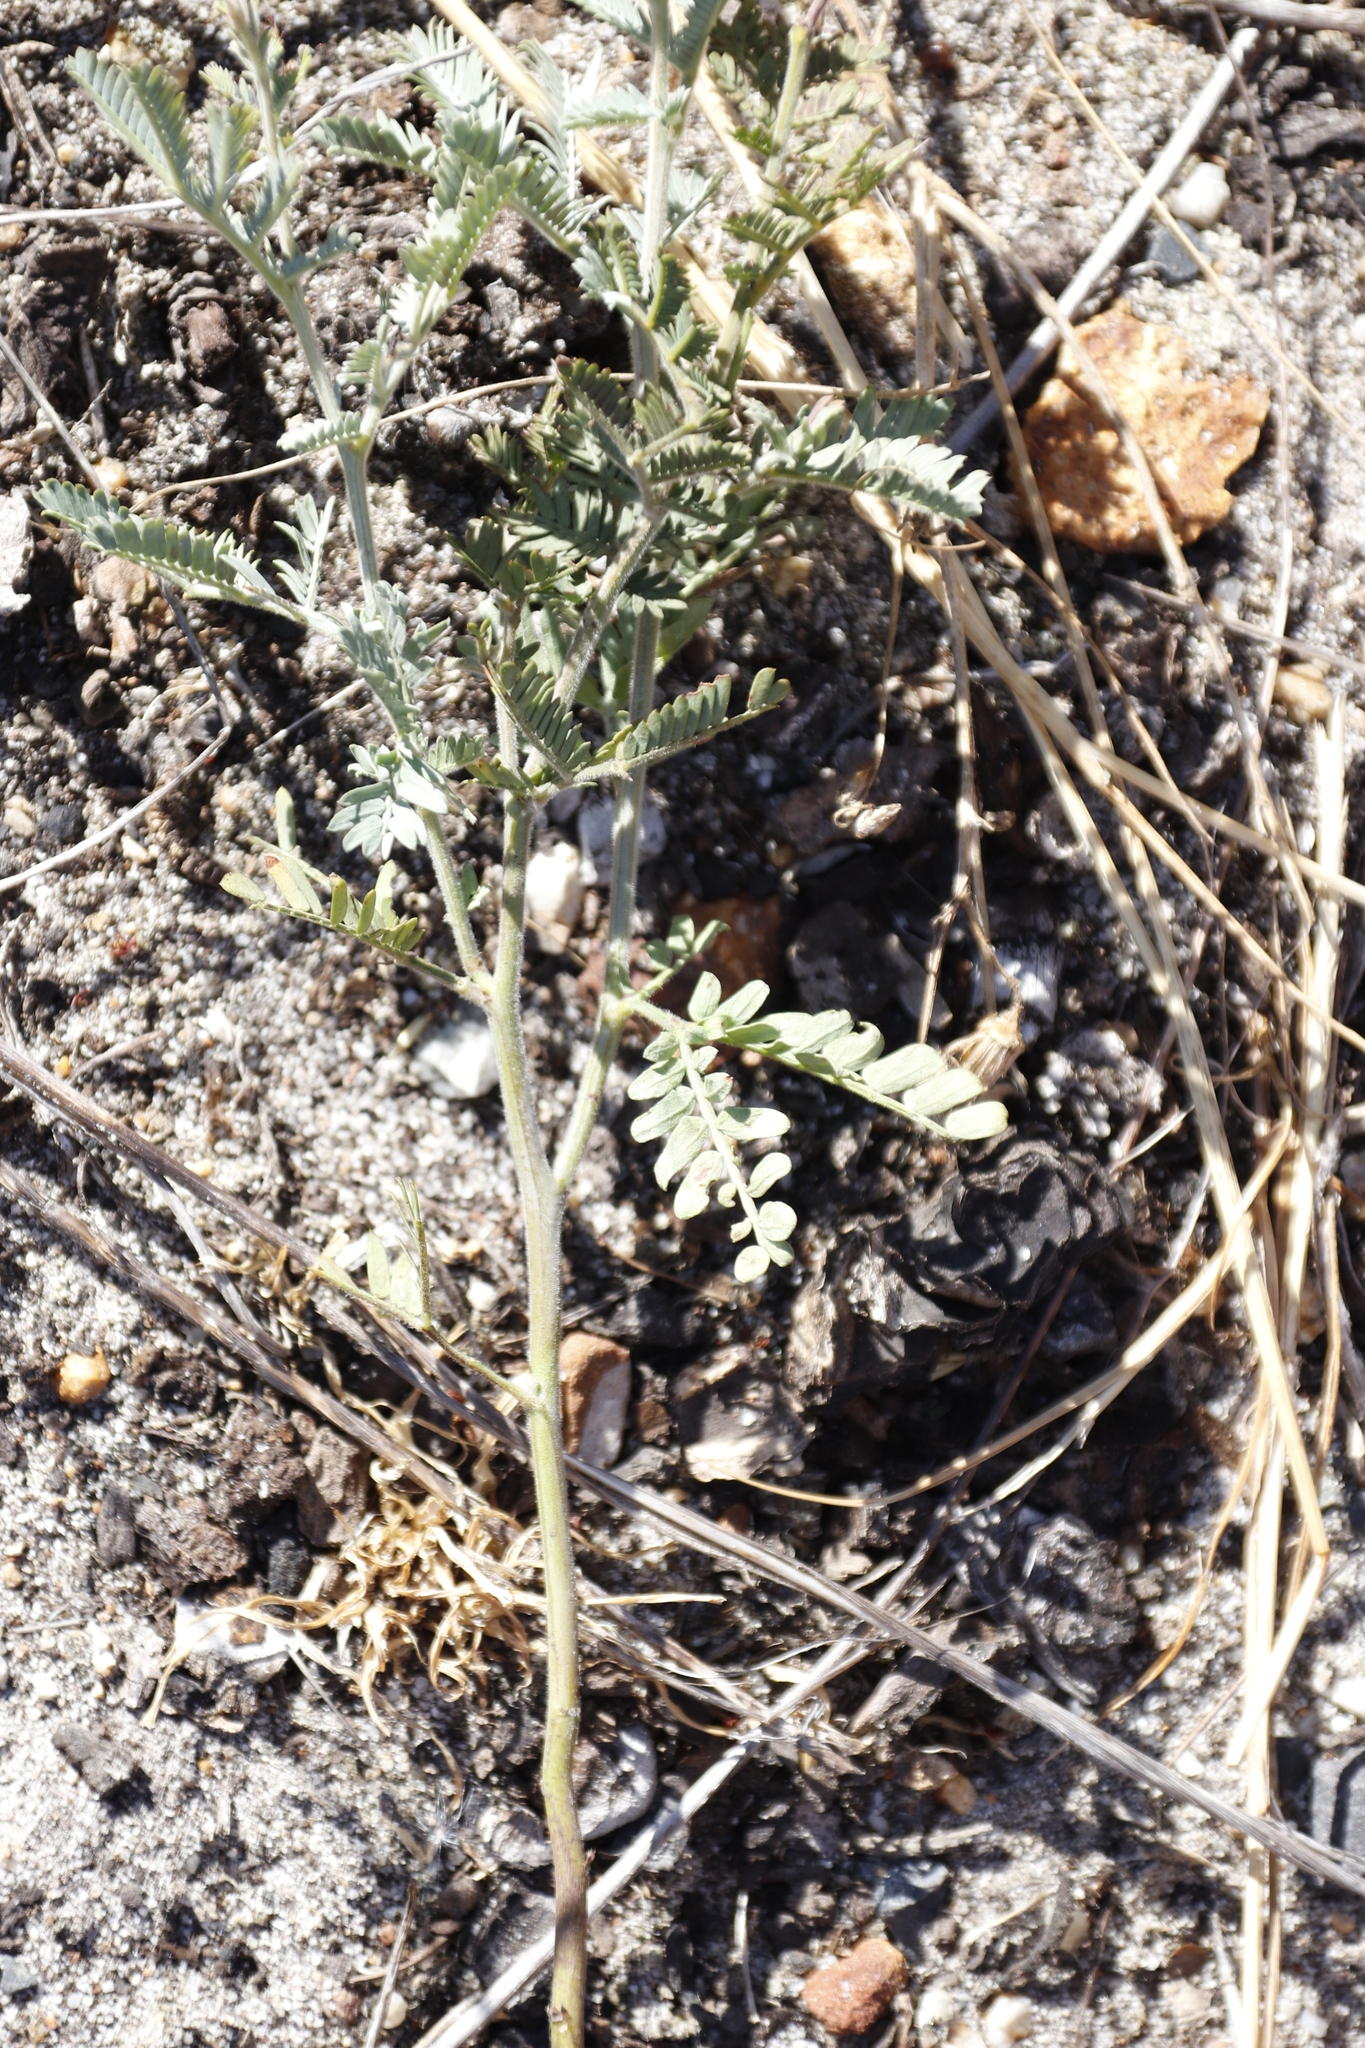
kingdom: Plantae
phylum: Tracheophyta
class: Magnoliopsida
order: Fabales
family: Fabaceae
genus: Acacia
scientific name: Acacia baileyana
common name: Cootamundra wattle
